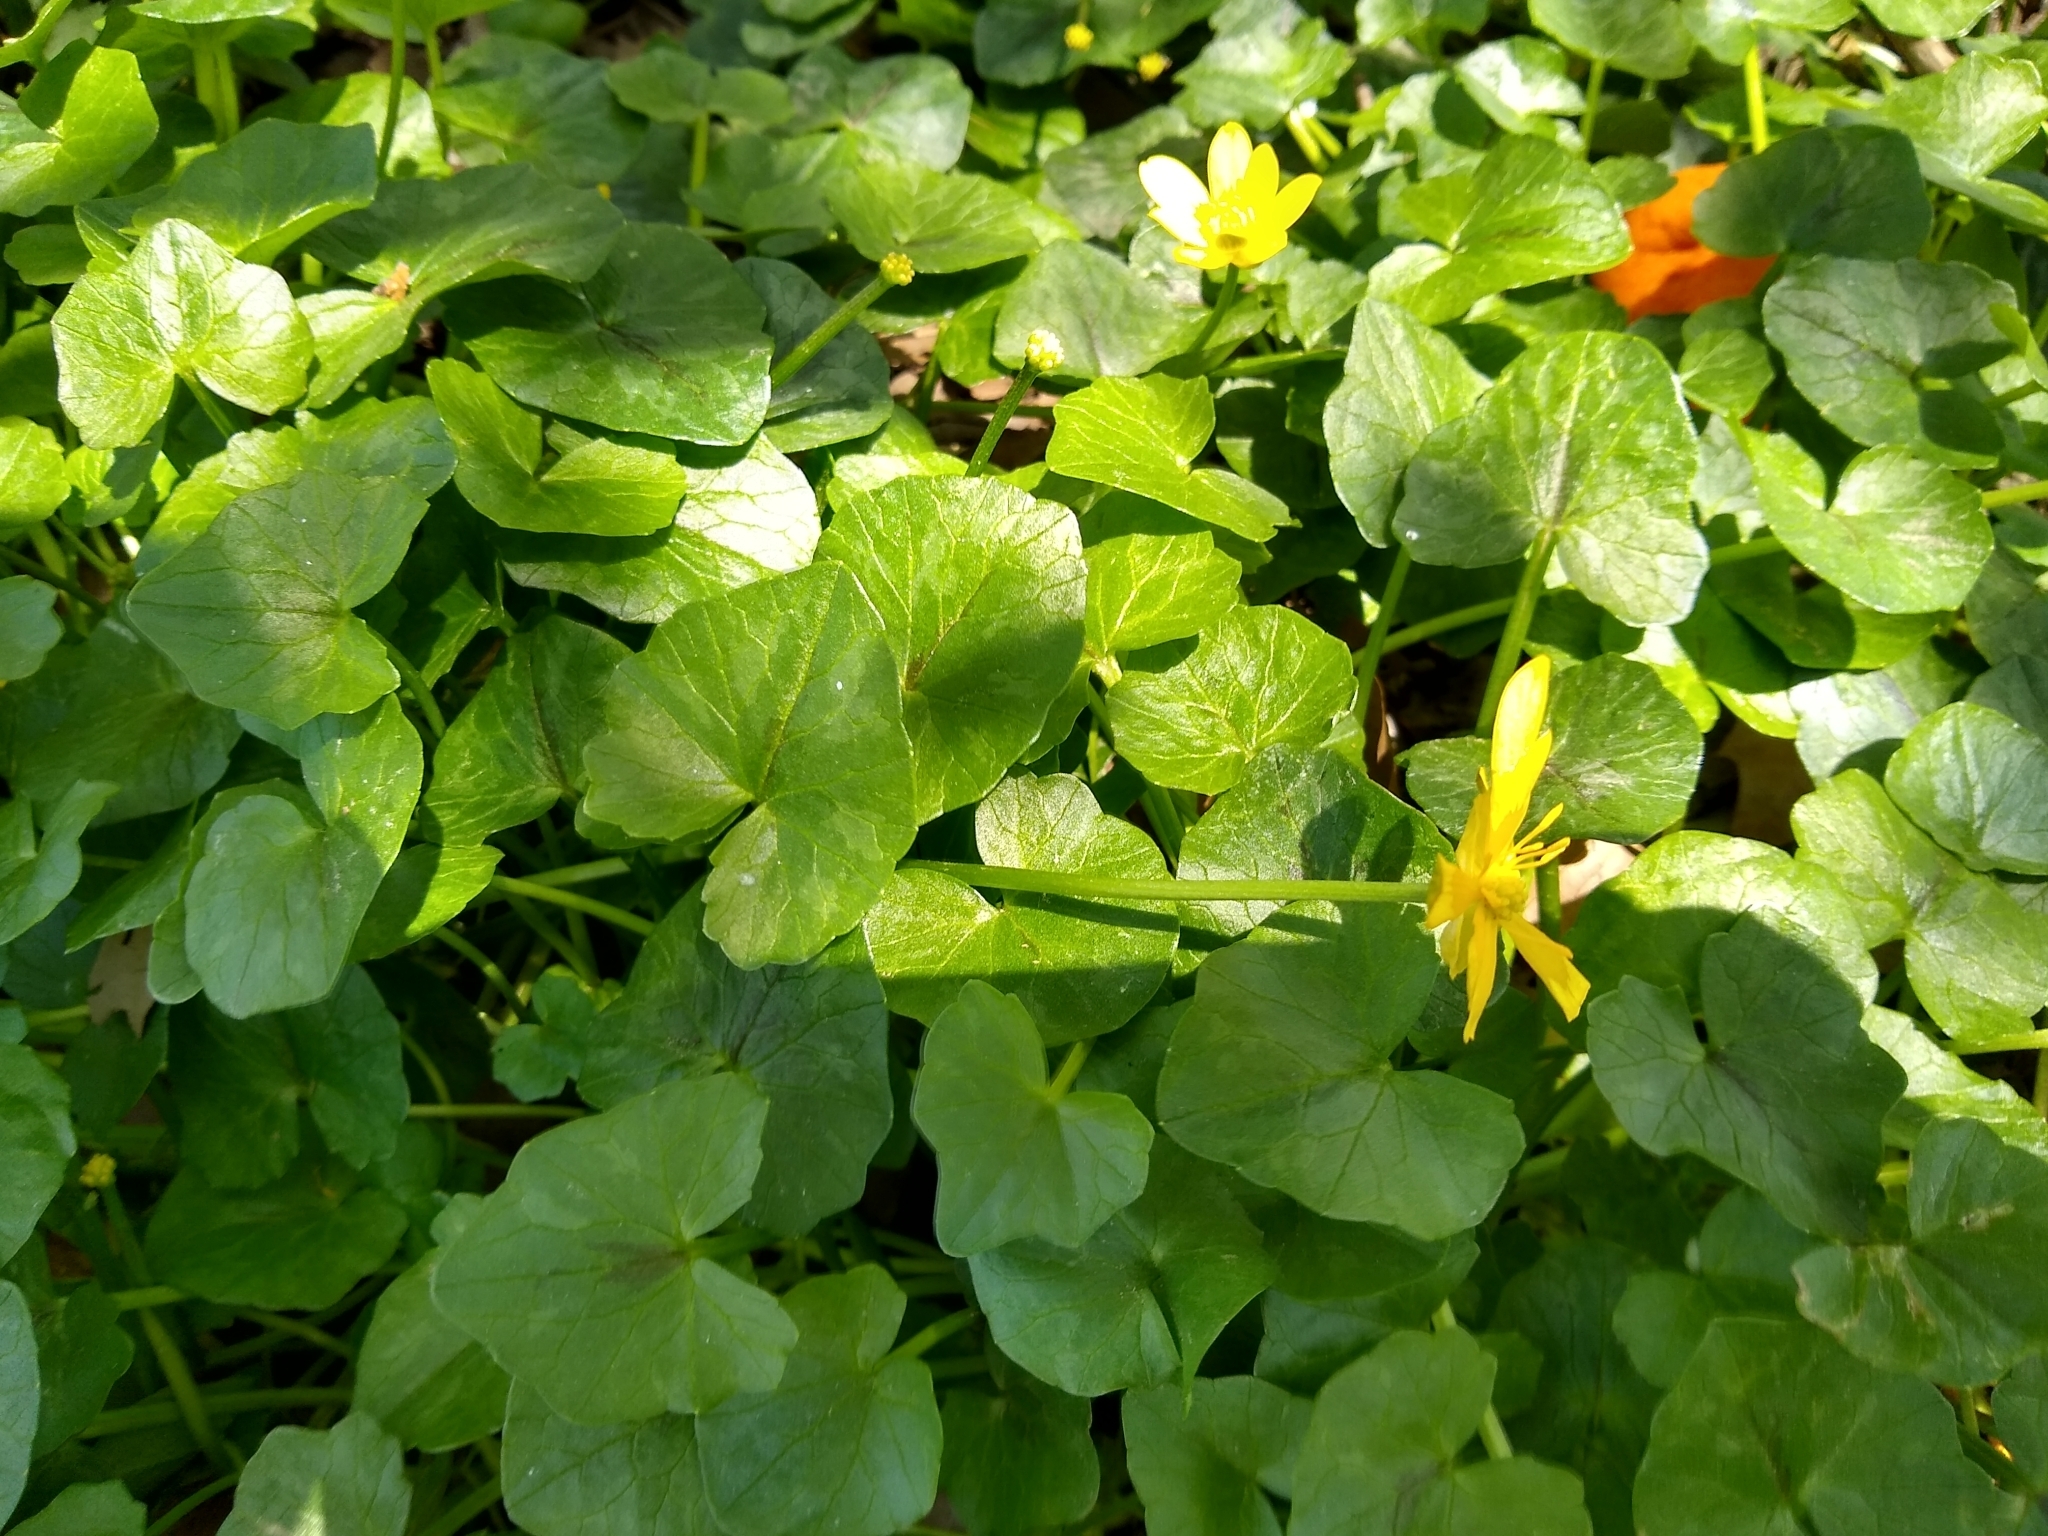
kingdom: Plantae
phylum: Tracheophyta
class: Magnoliopsida
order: Ranunculales
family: Ranunculaceae
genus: Ficaria
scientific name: Ficaria verna
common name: Lesser celandine
